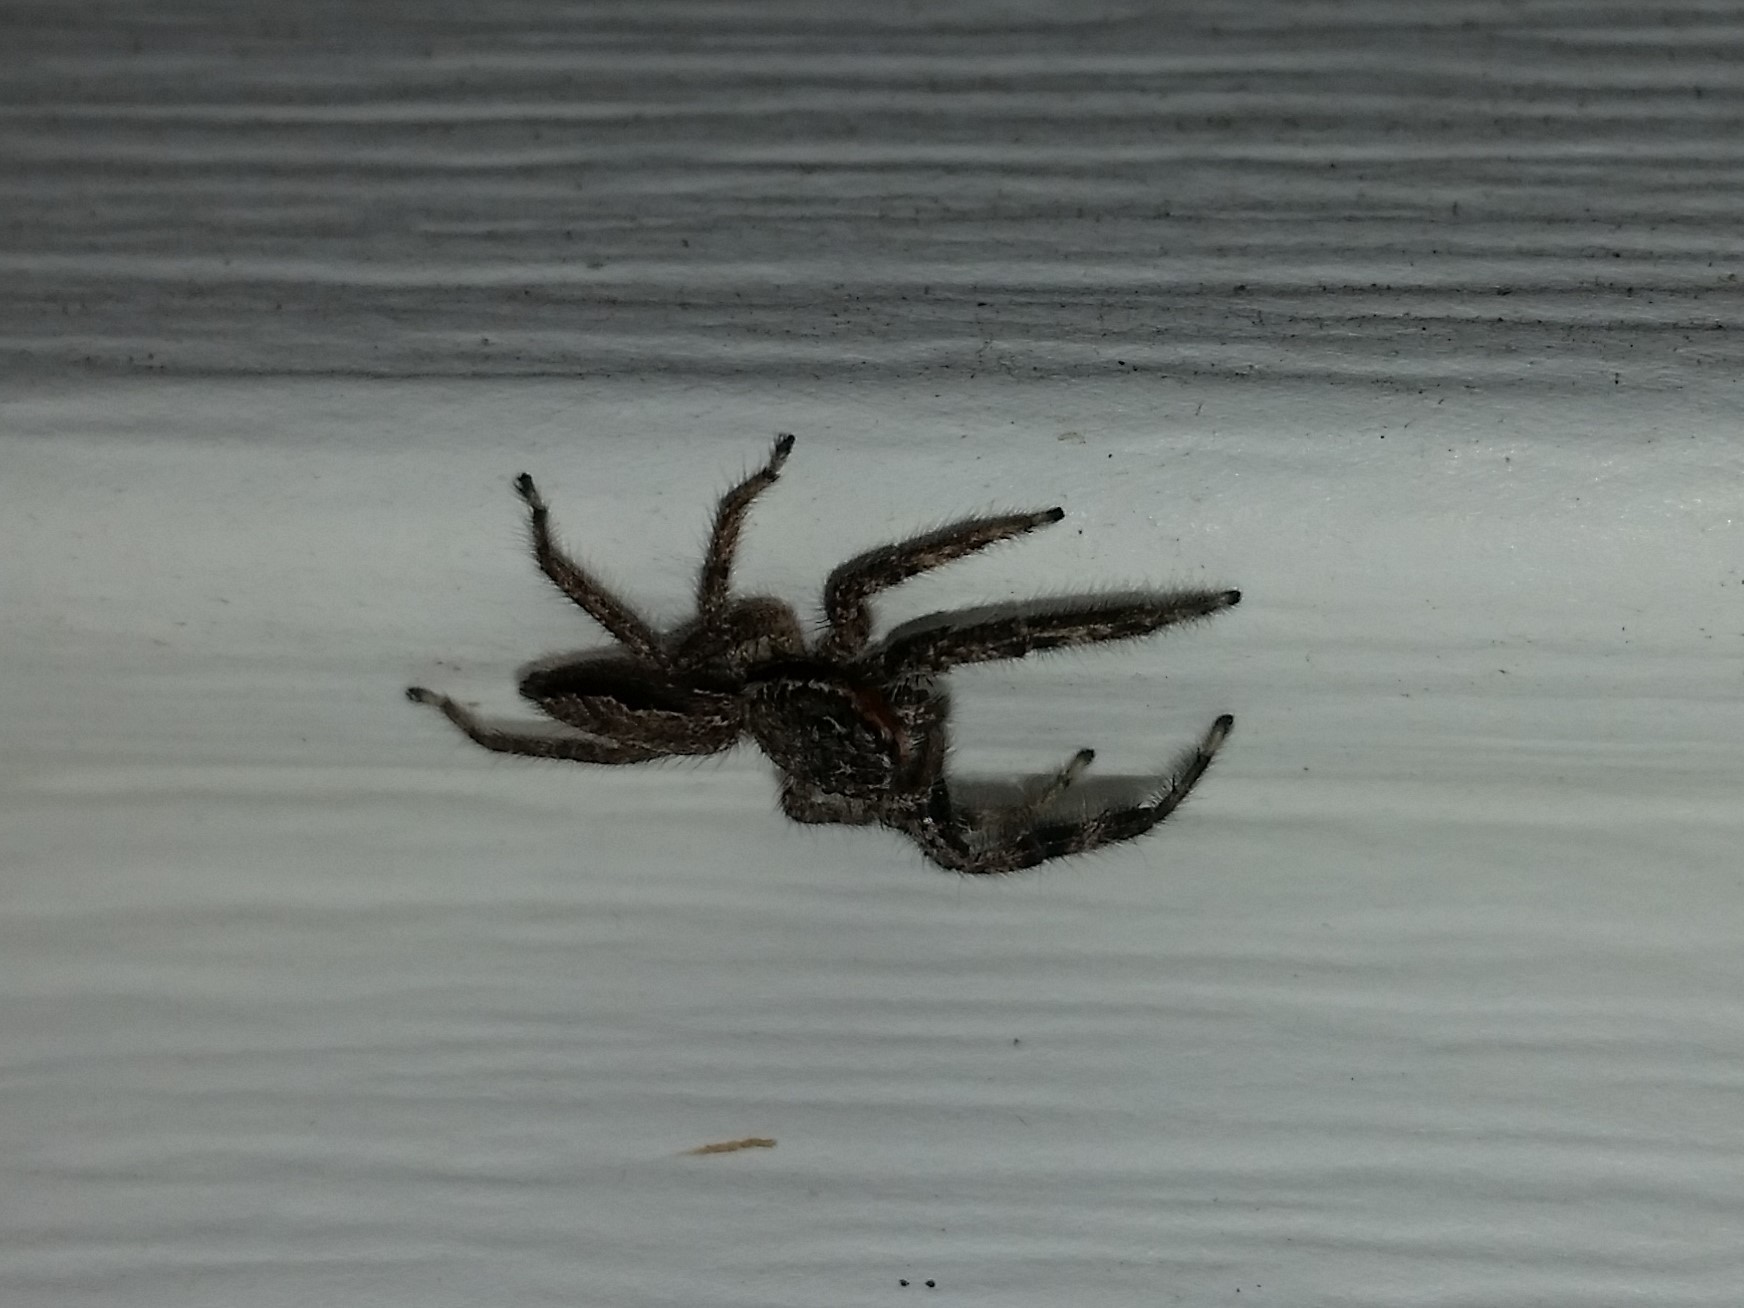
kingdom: Animalia
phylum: Arthropoda
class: Arachnida
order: Araneae
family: Salticidae
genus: Platycryptus
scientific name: Platycryptus undatus
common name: Tan jumping spider
